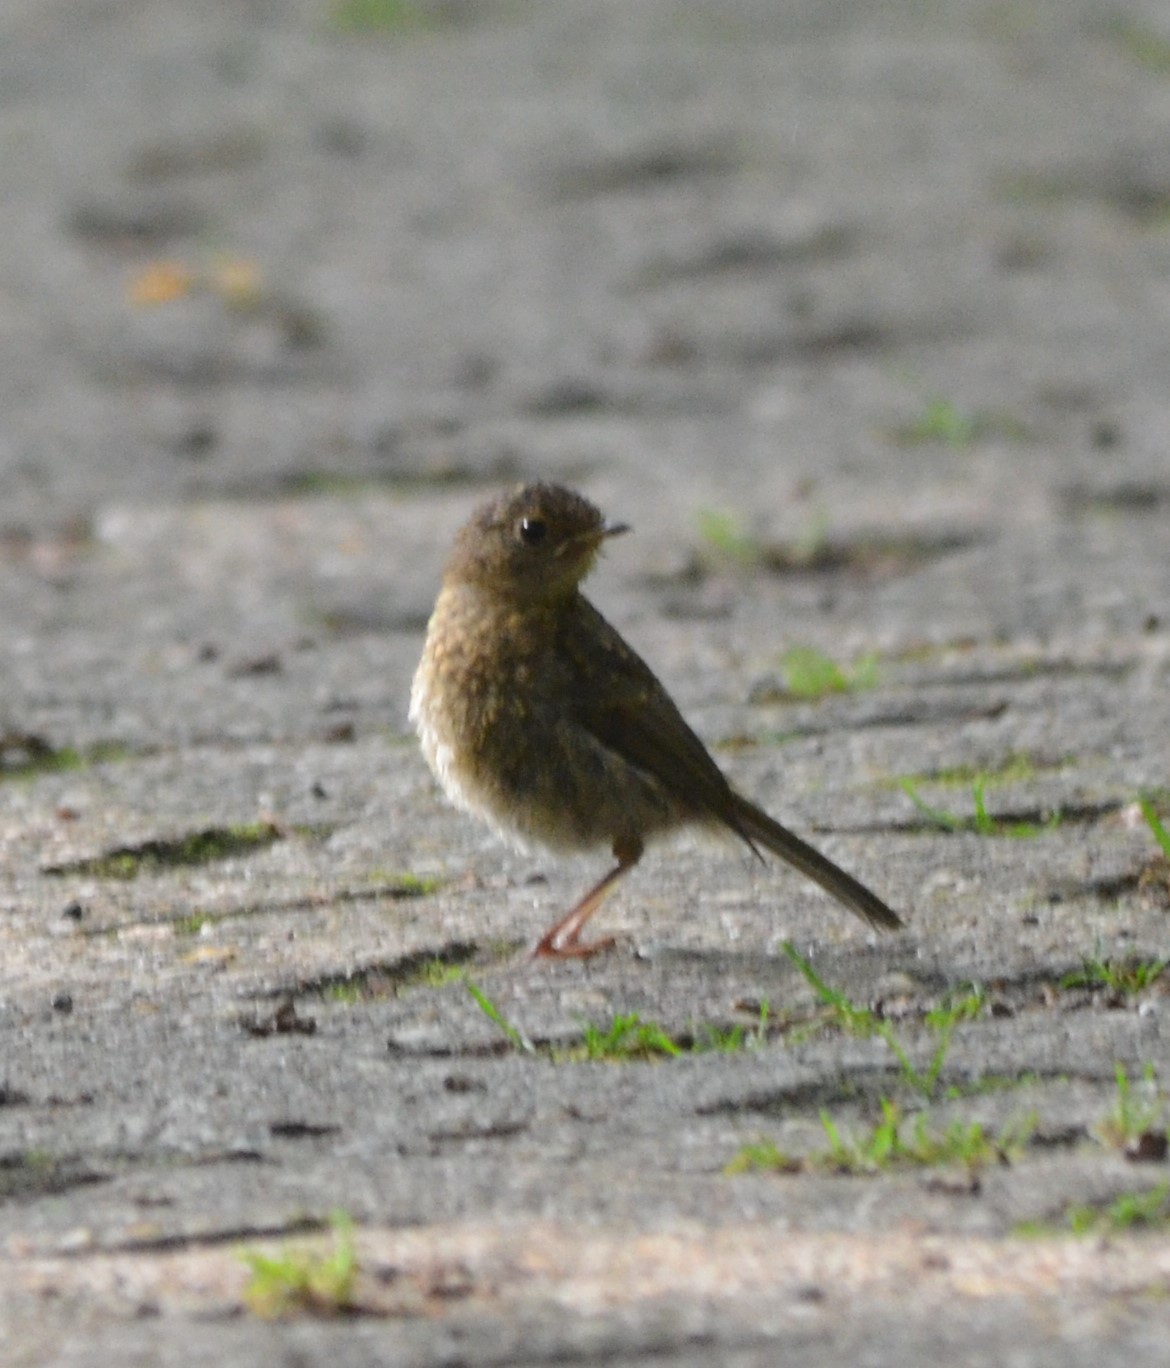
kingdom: Animalia
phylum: Chordata
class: Aves
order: Passeriformes
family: Muscicapidae
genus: Erithacus
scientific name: Erithacus rubecula
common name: European robin
